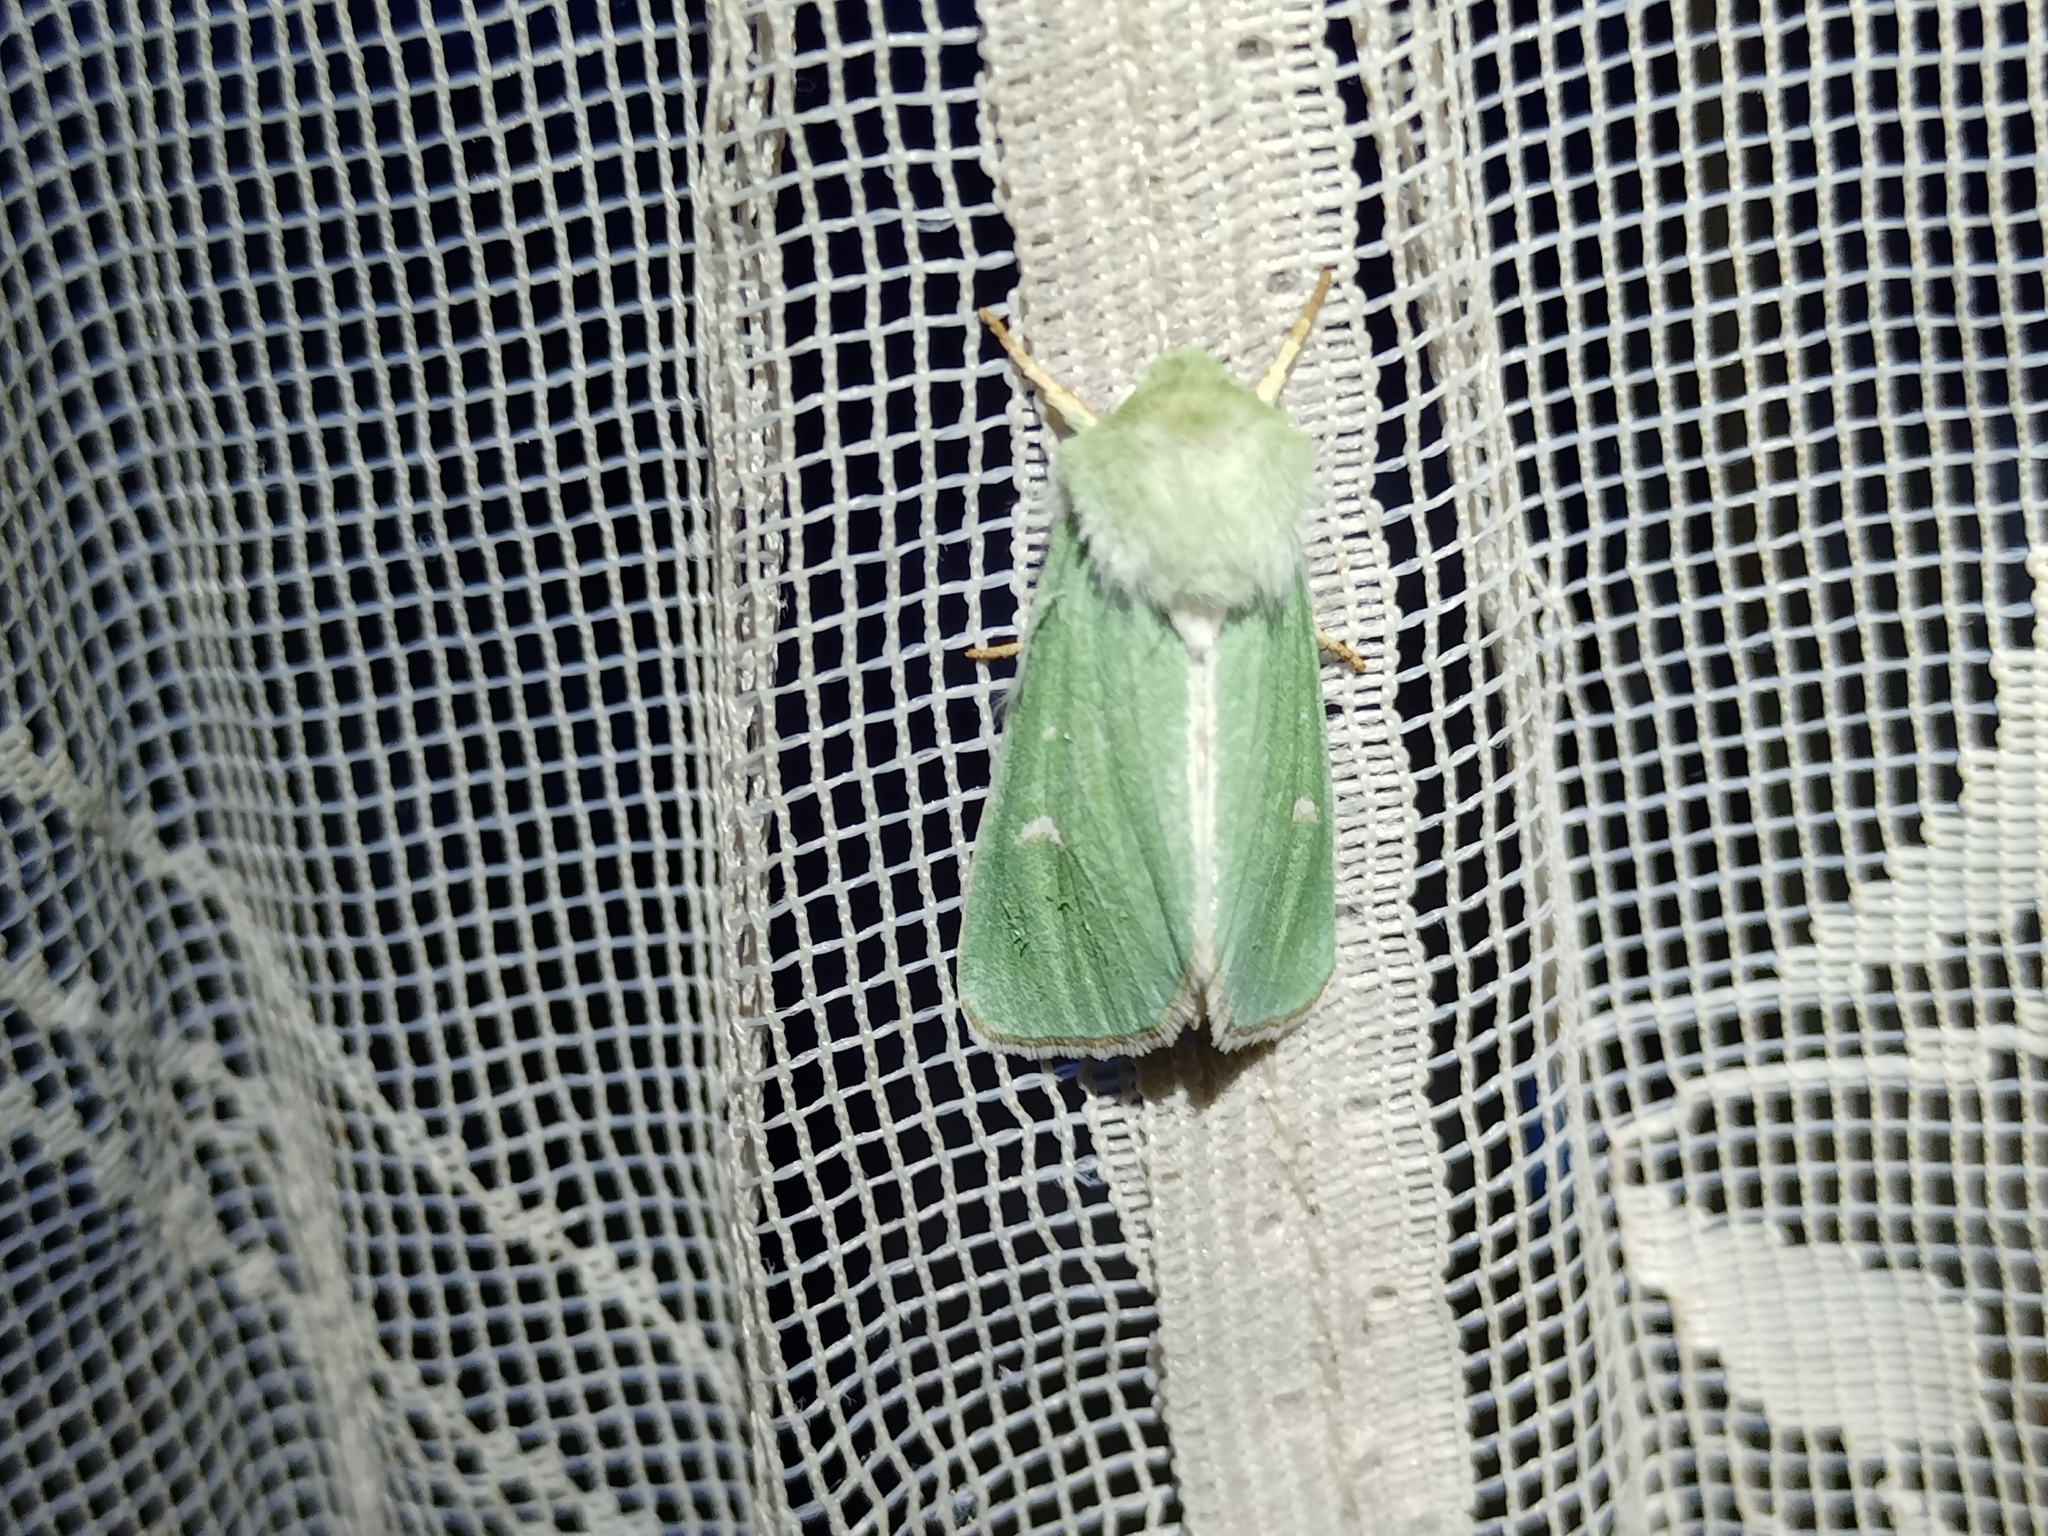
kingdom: Animalia
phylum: Arthropoda
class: Insecta
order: Lepidoptera
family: Noctuidae
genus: Calamia
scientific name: Calamia tridens
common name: Burren green
